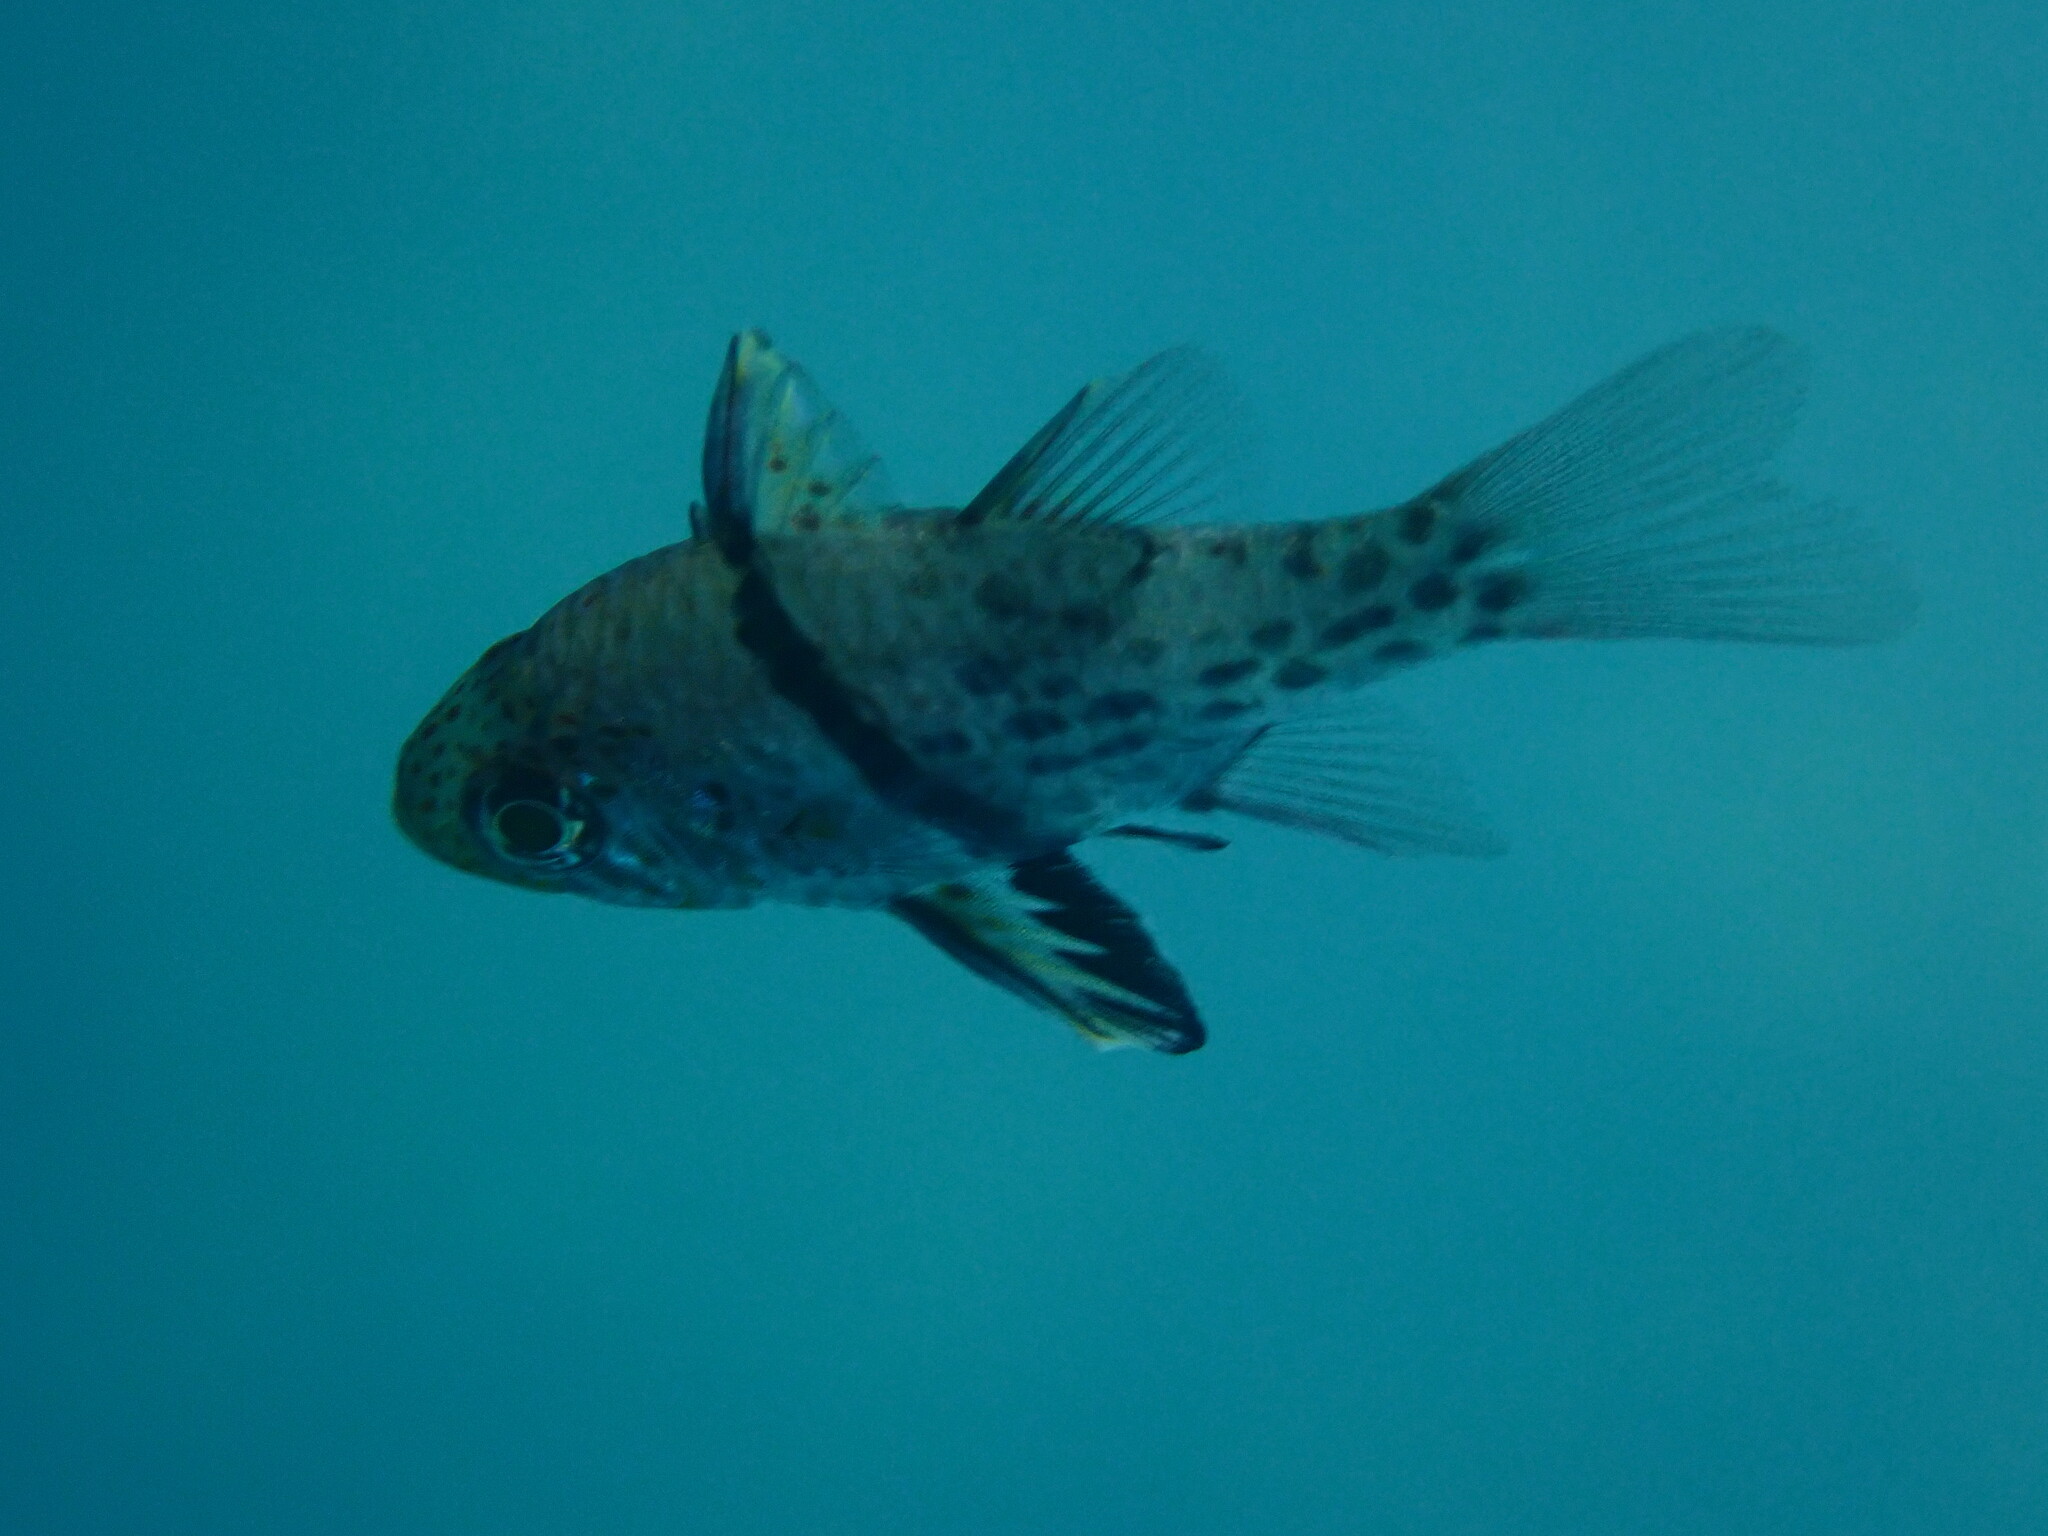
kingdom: Animalia
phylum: Chordata
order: Perciformes
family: Apogonidae
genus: Sphaeramia
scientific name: Sphaeramia orbicularis
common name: Polka-dot cardinalfish
